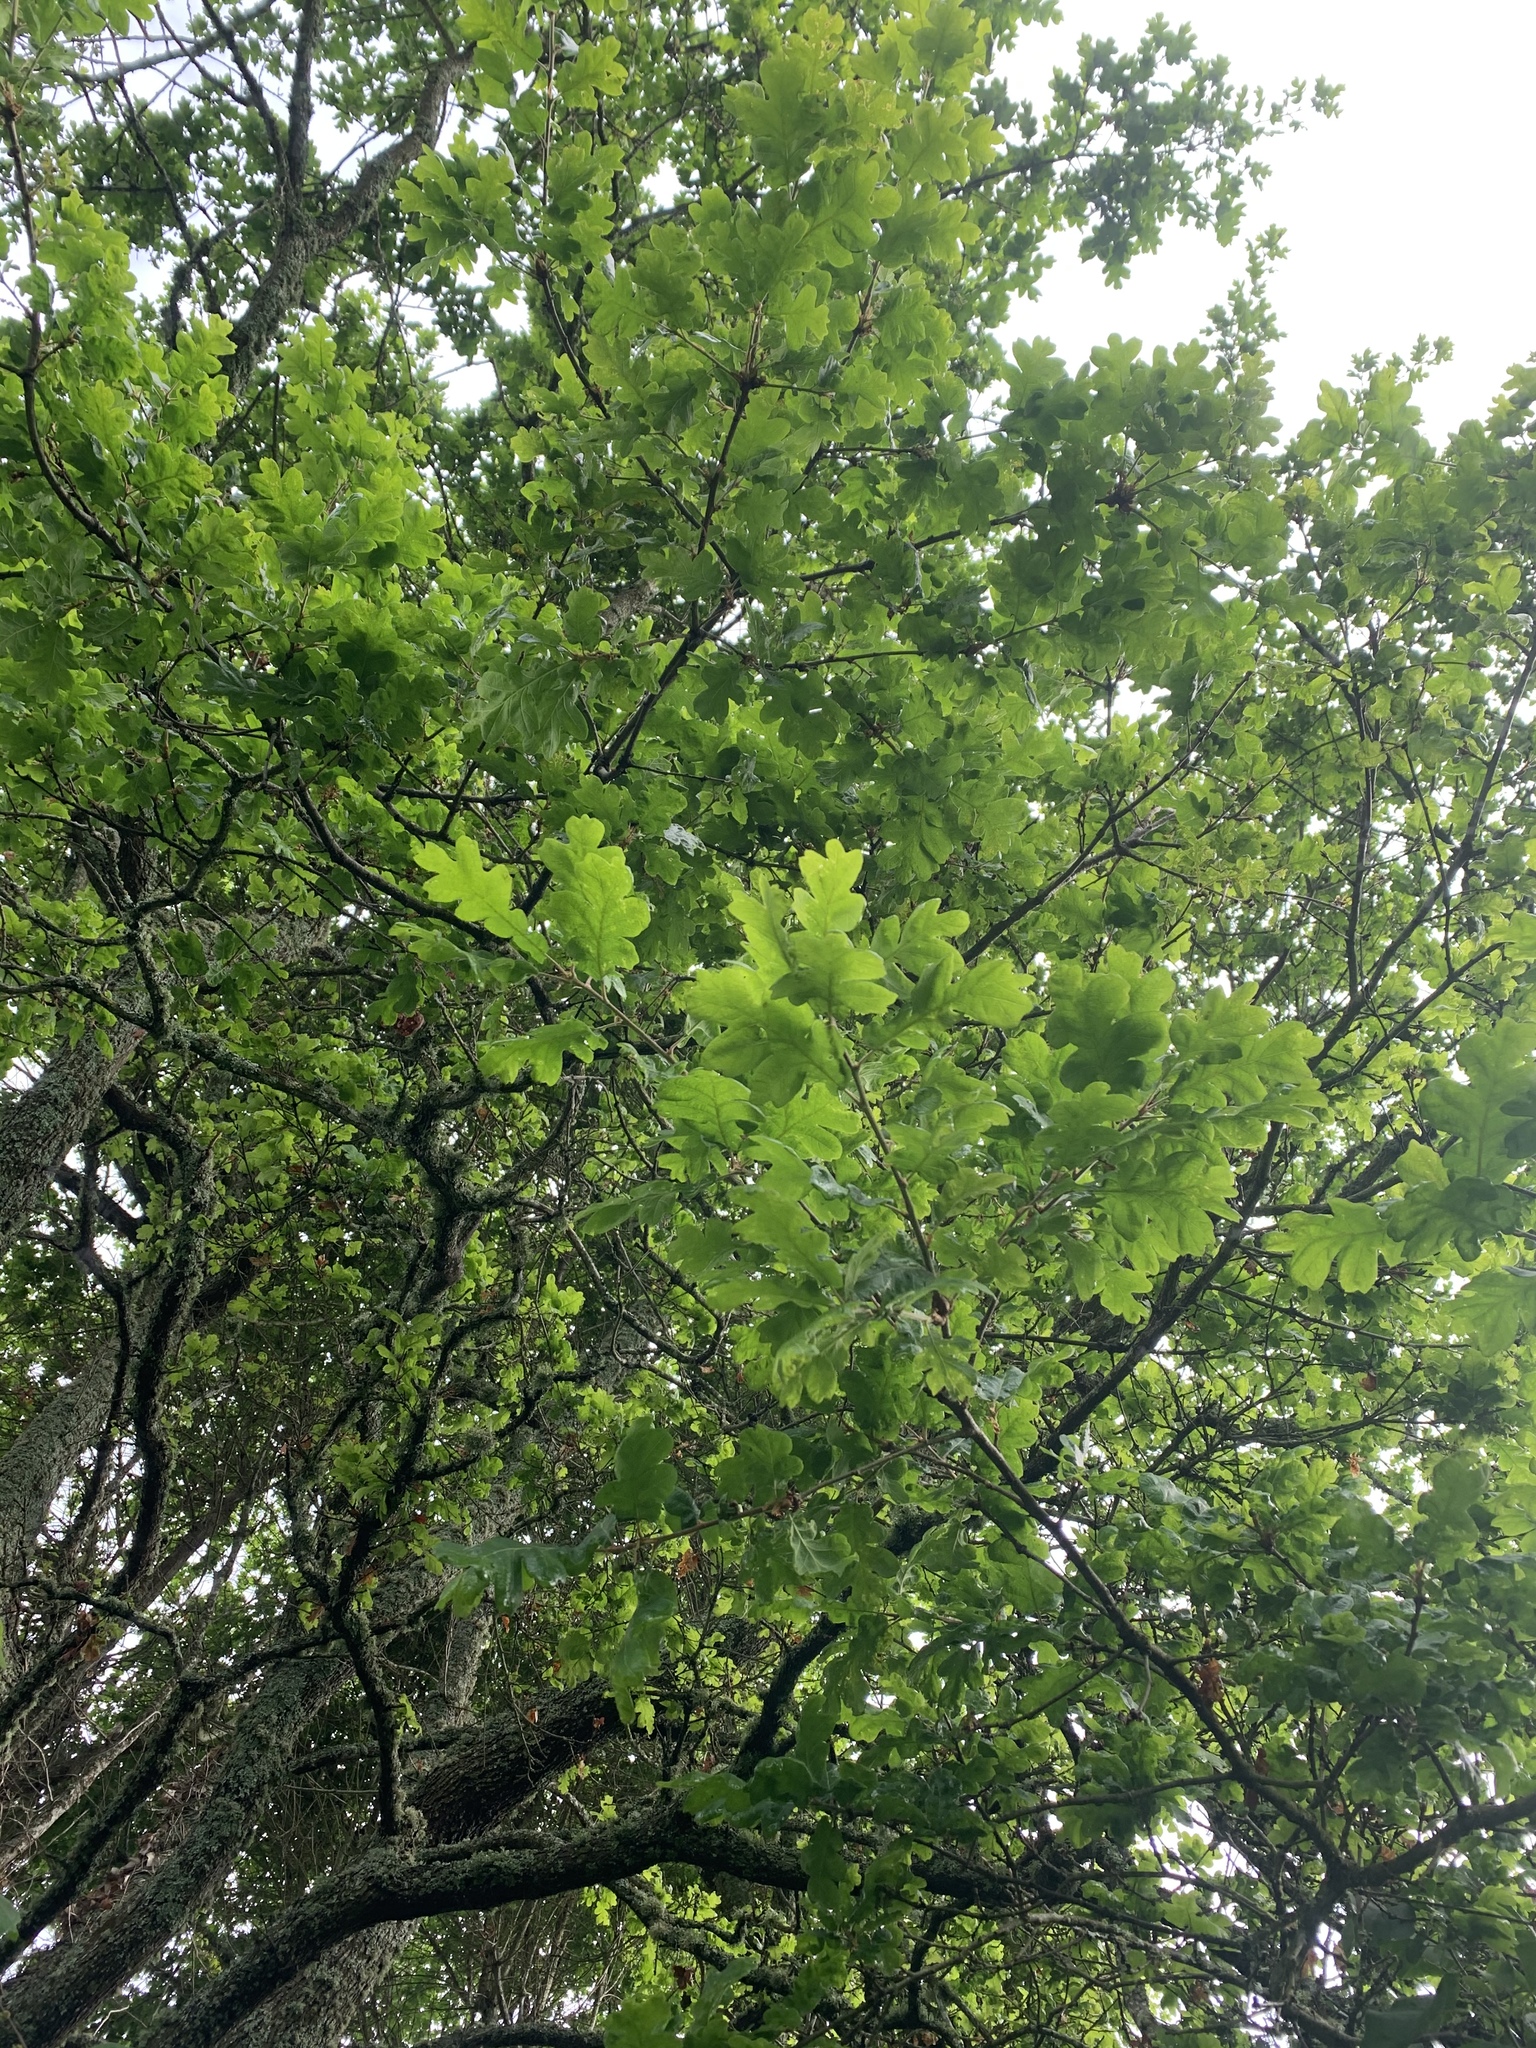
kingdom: Plantae
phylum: Tracheophyta
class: Magnoliopsida
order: Fagales
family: Fagaceae
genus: Quercus
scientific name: Quercus garryana
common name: Garry oak
